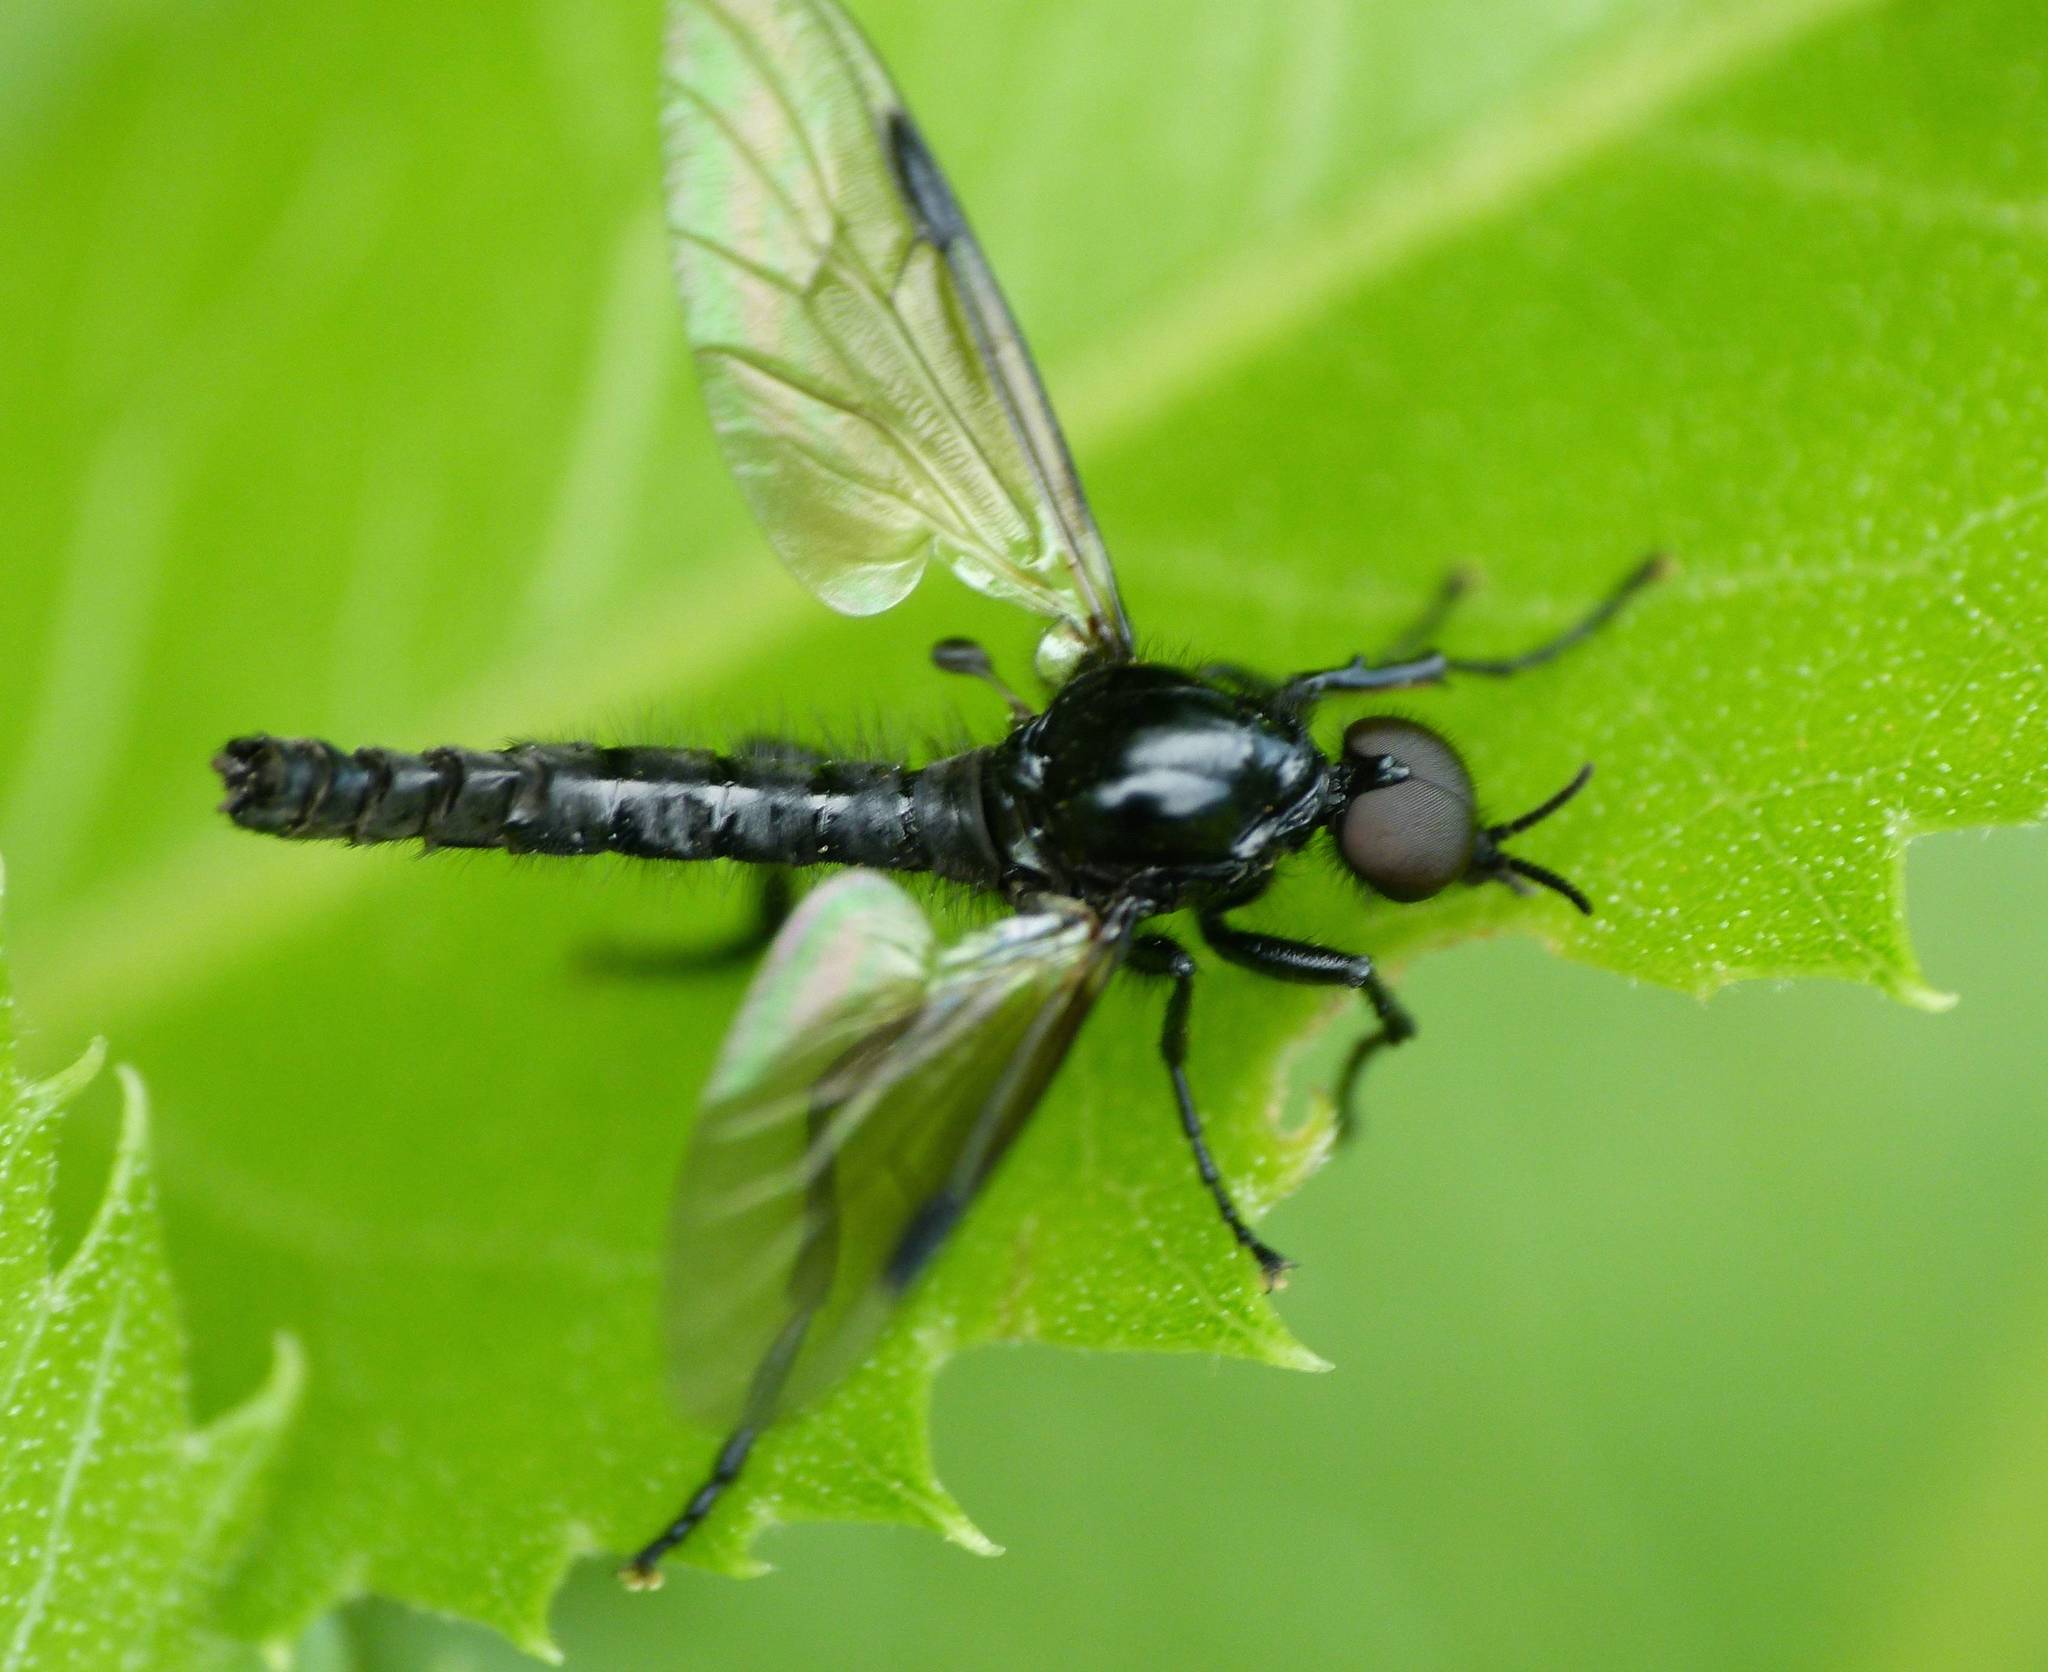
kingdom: Animalia
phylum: Arthropoda
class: Insecta
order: Diptera
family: Bibionidae
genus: Dilophus
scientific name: Dilophus nigrostigma
